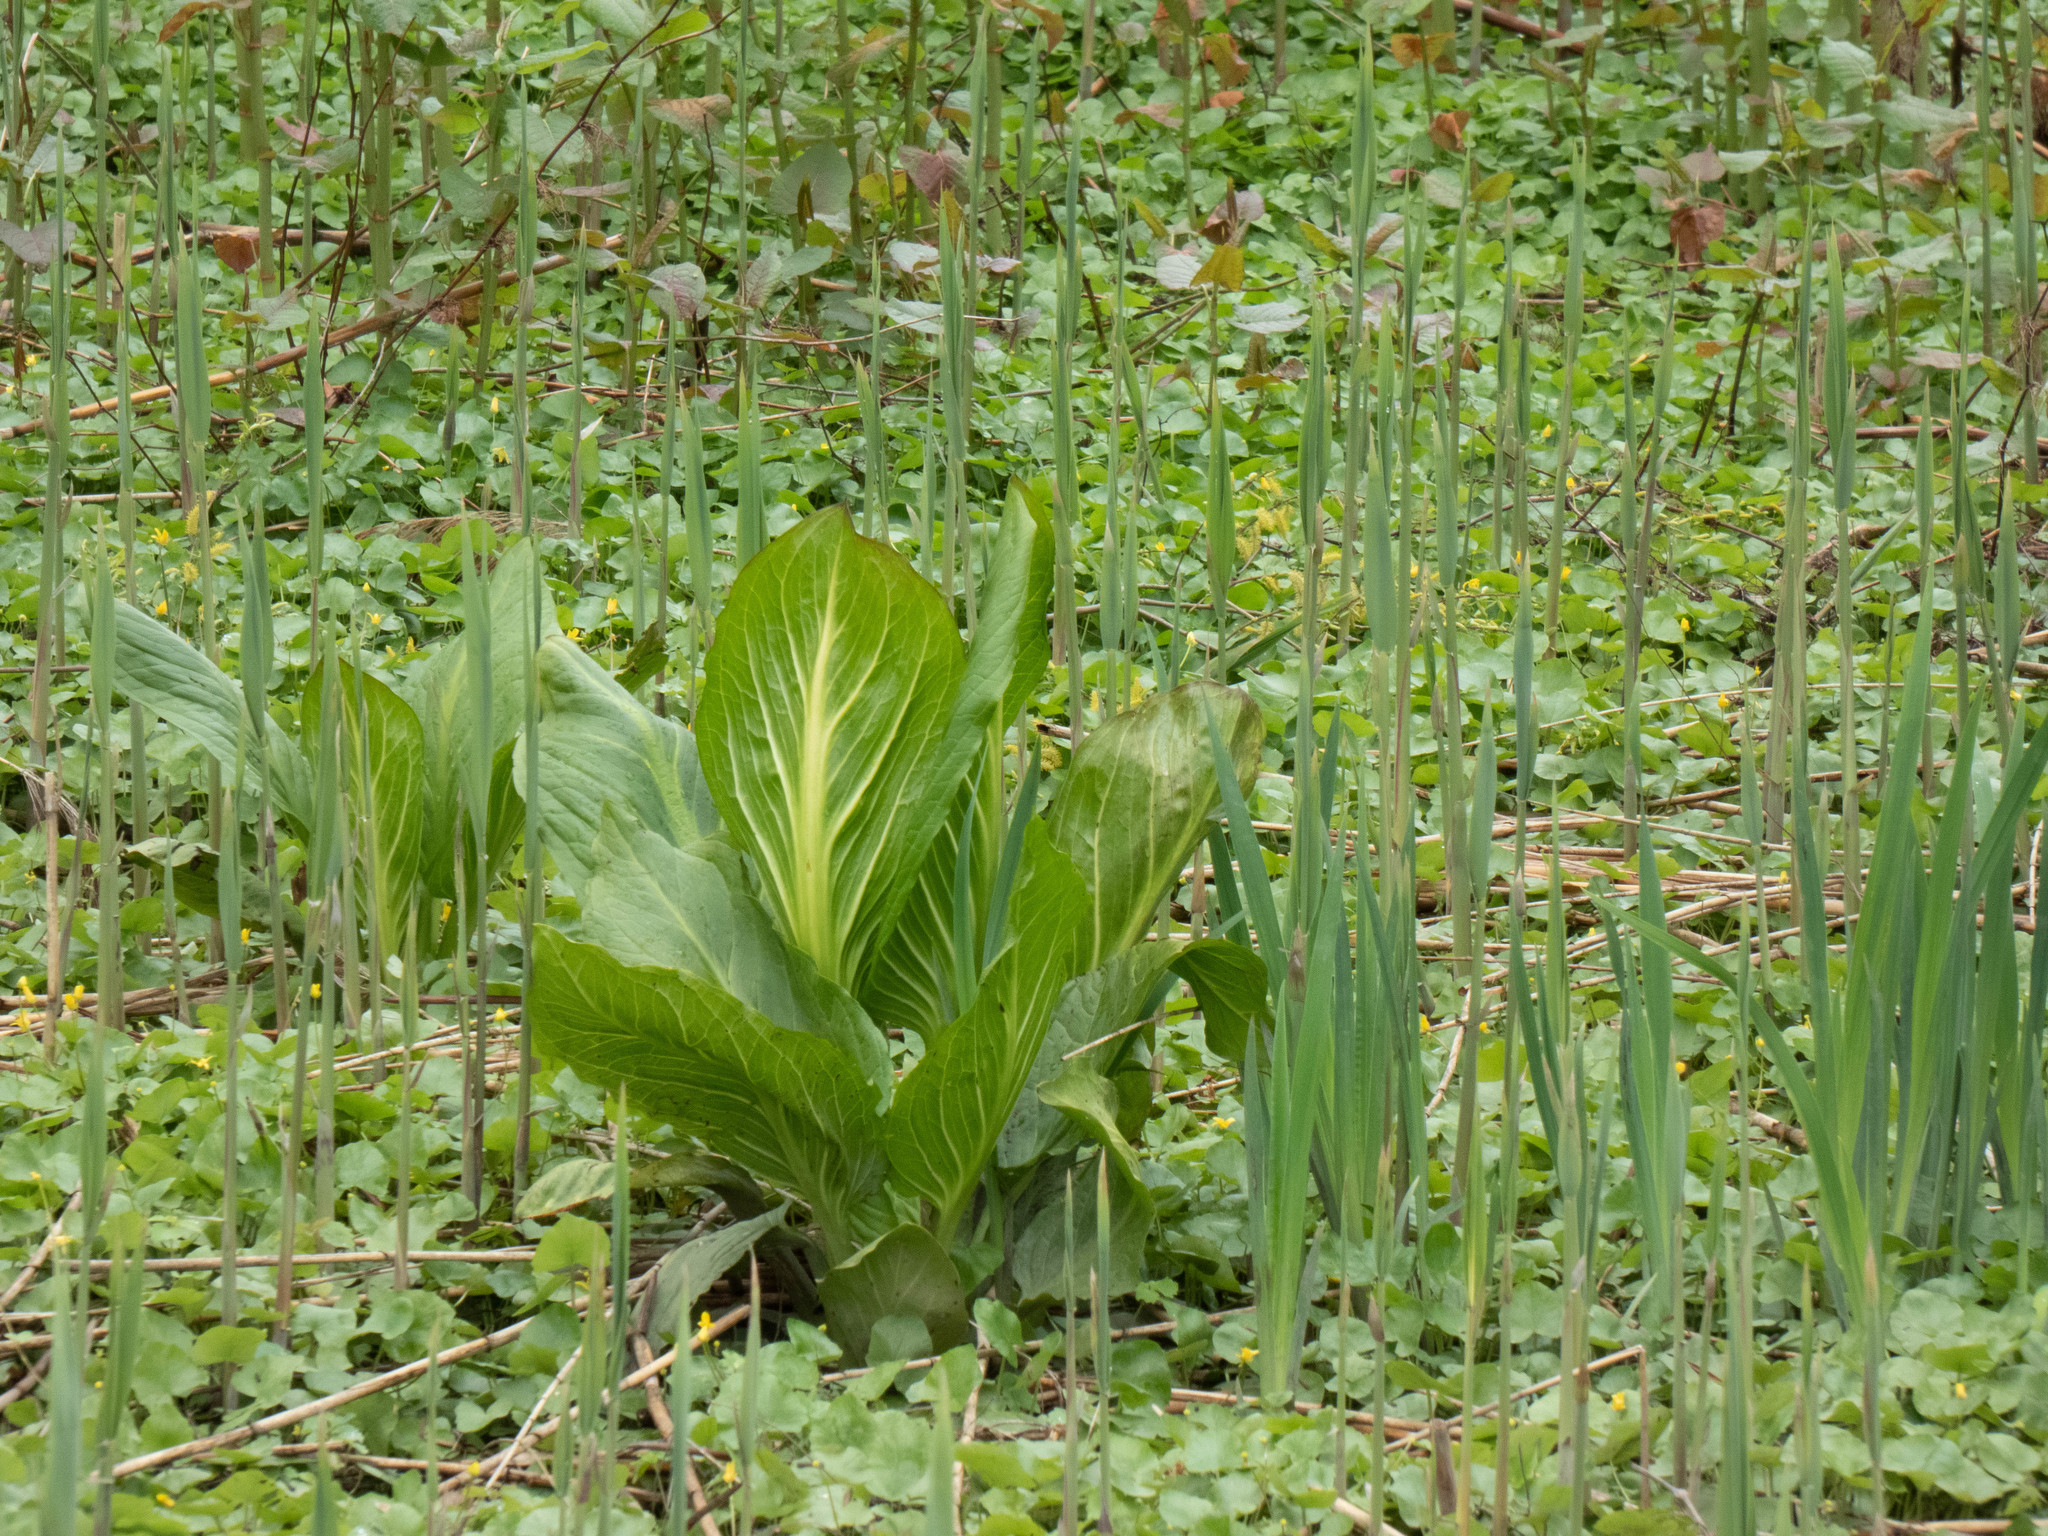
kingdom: Plantae
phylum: Tracheophyta
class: Liliopsida
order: Alismatales
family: Araceae
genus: Symplocarpus
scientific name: Symplocarpus foetidus
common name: Eastern skunk cabbage
